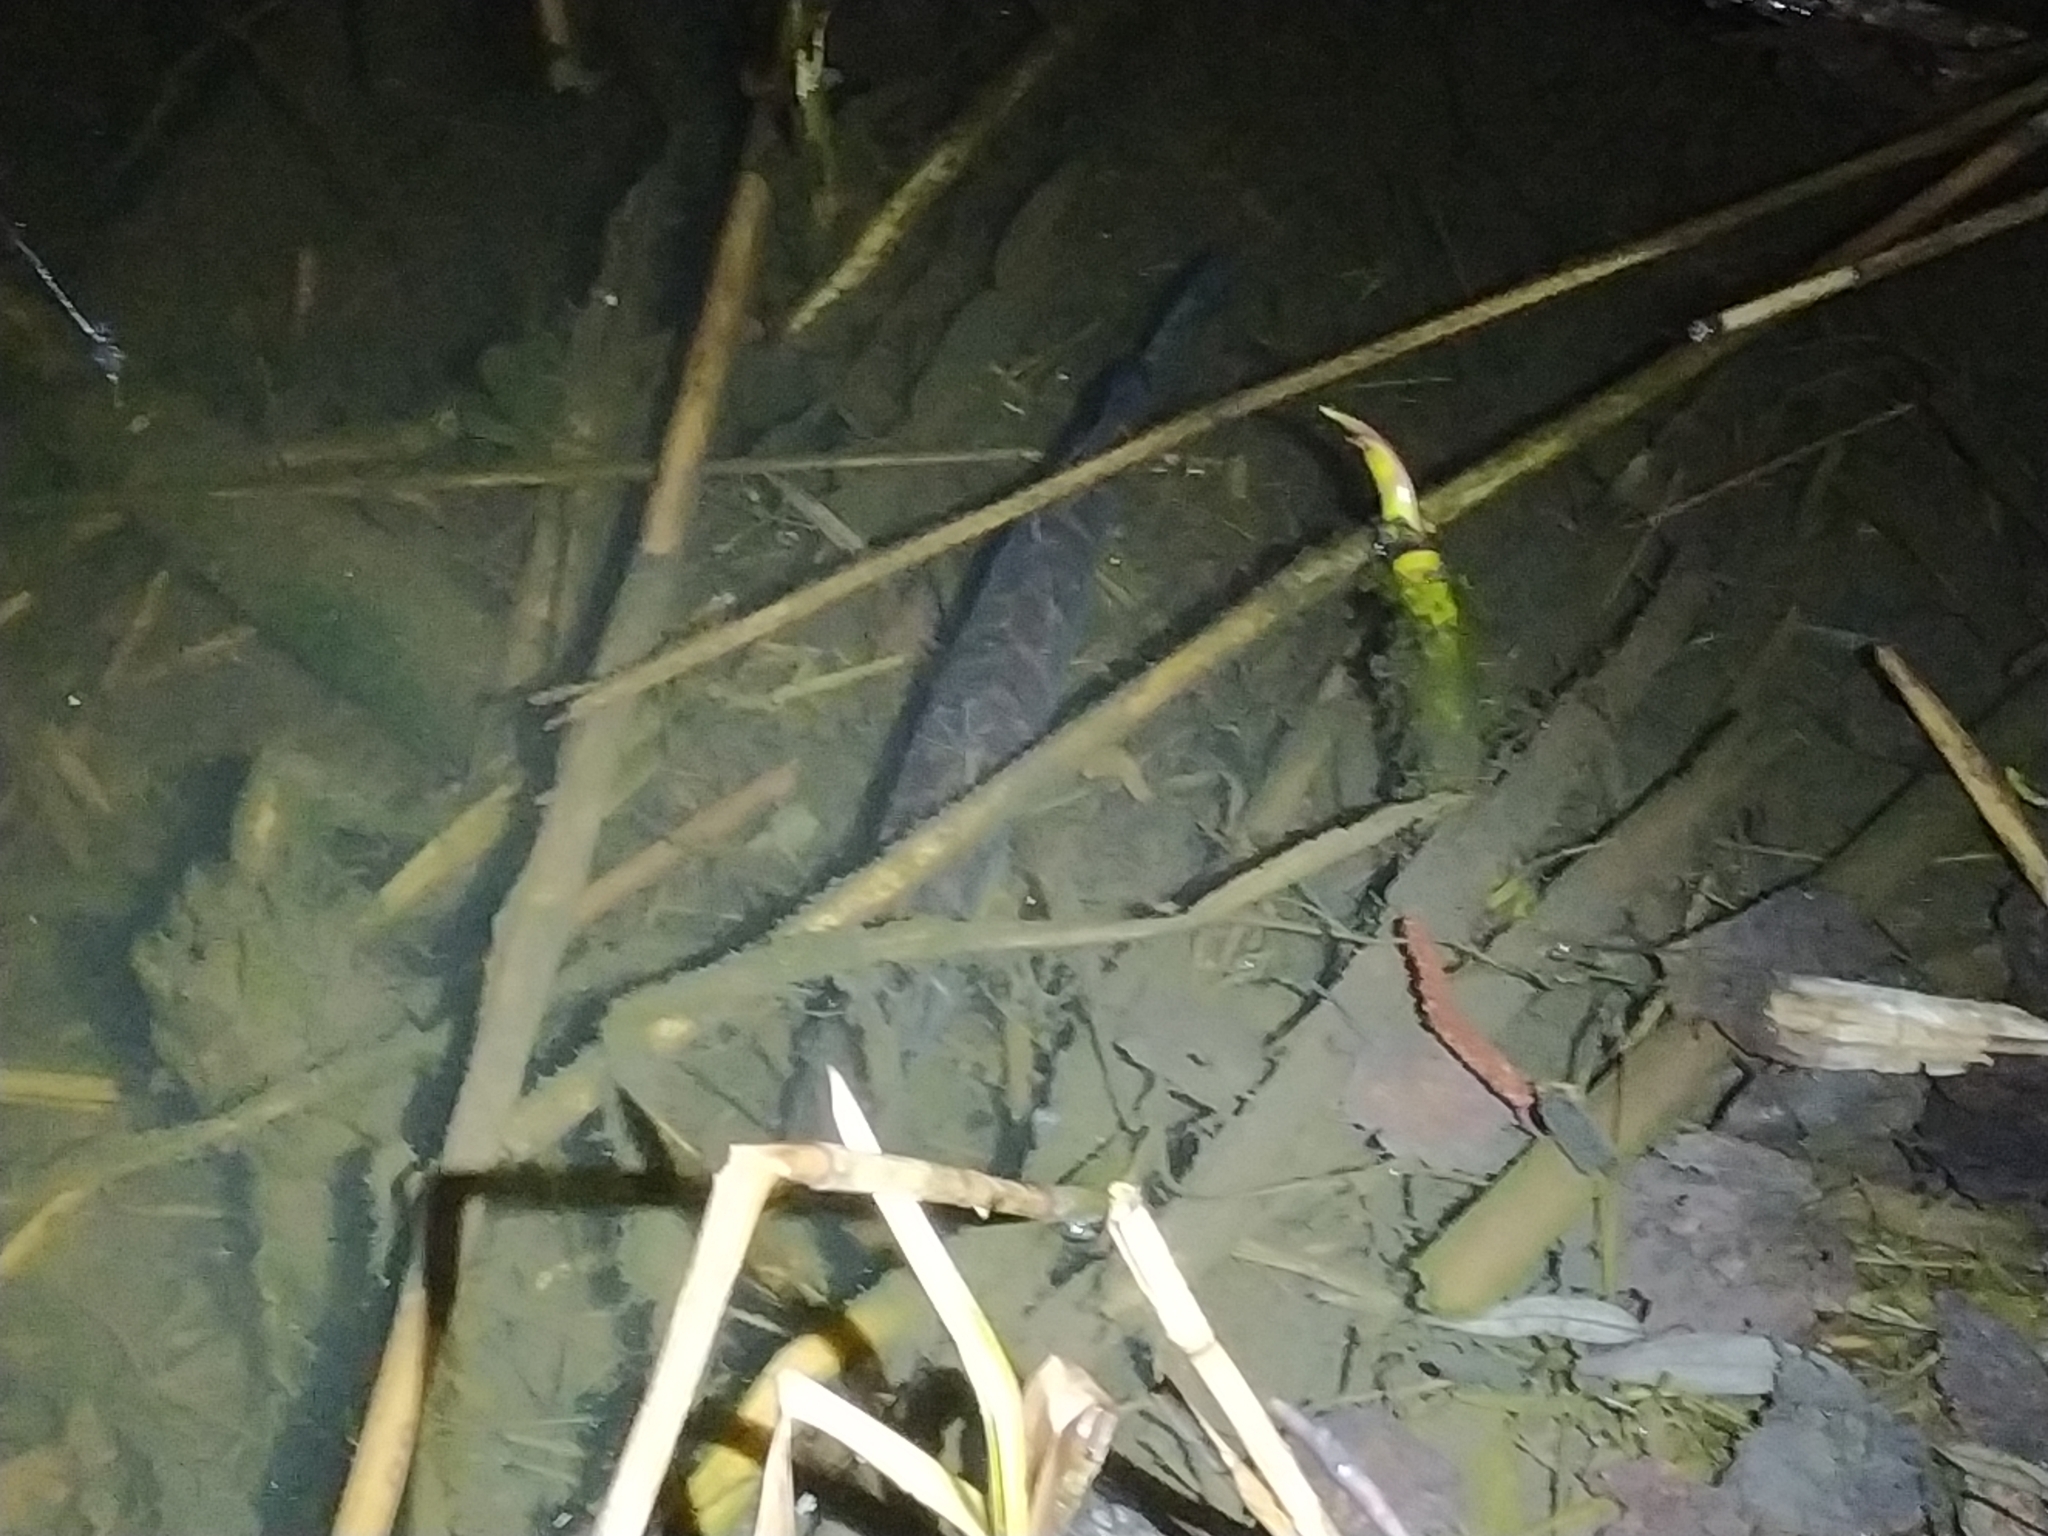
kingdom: Animalia
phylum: Chordata
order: Esociformes
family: Esocidae
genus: Esox
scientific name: Esox lucius
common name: Northern pike
